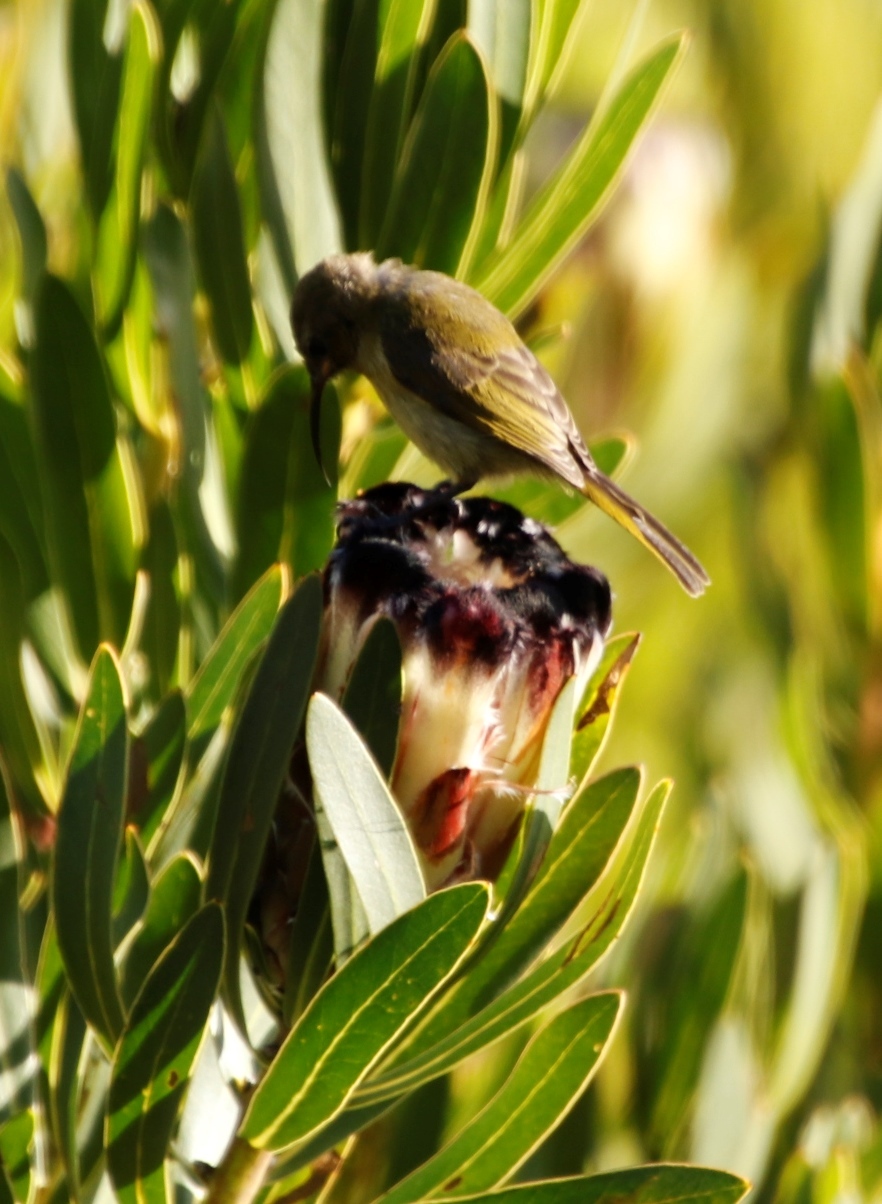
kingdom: Animalia
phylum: Chordata
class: Aves
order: Passeriformes
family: Nectariniidae
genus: Anthobaphes
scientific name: Anthobaphes violacea
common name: Orange-breasted sunbird
